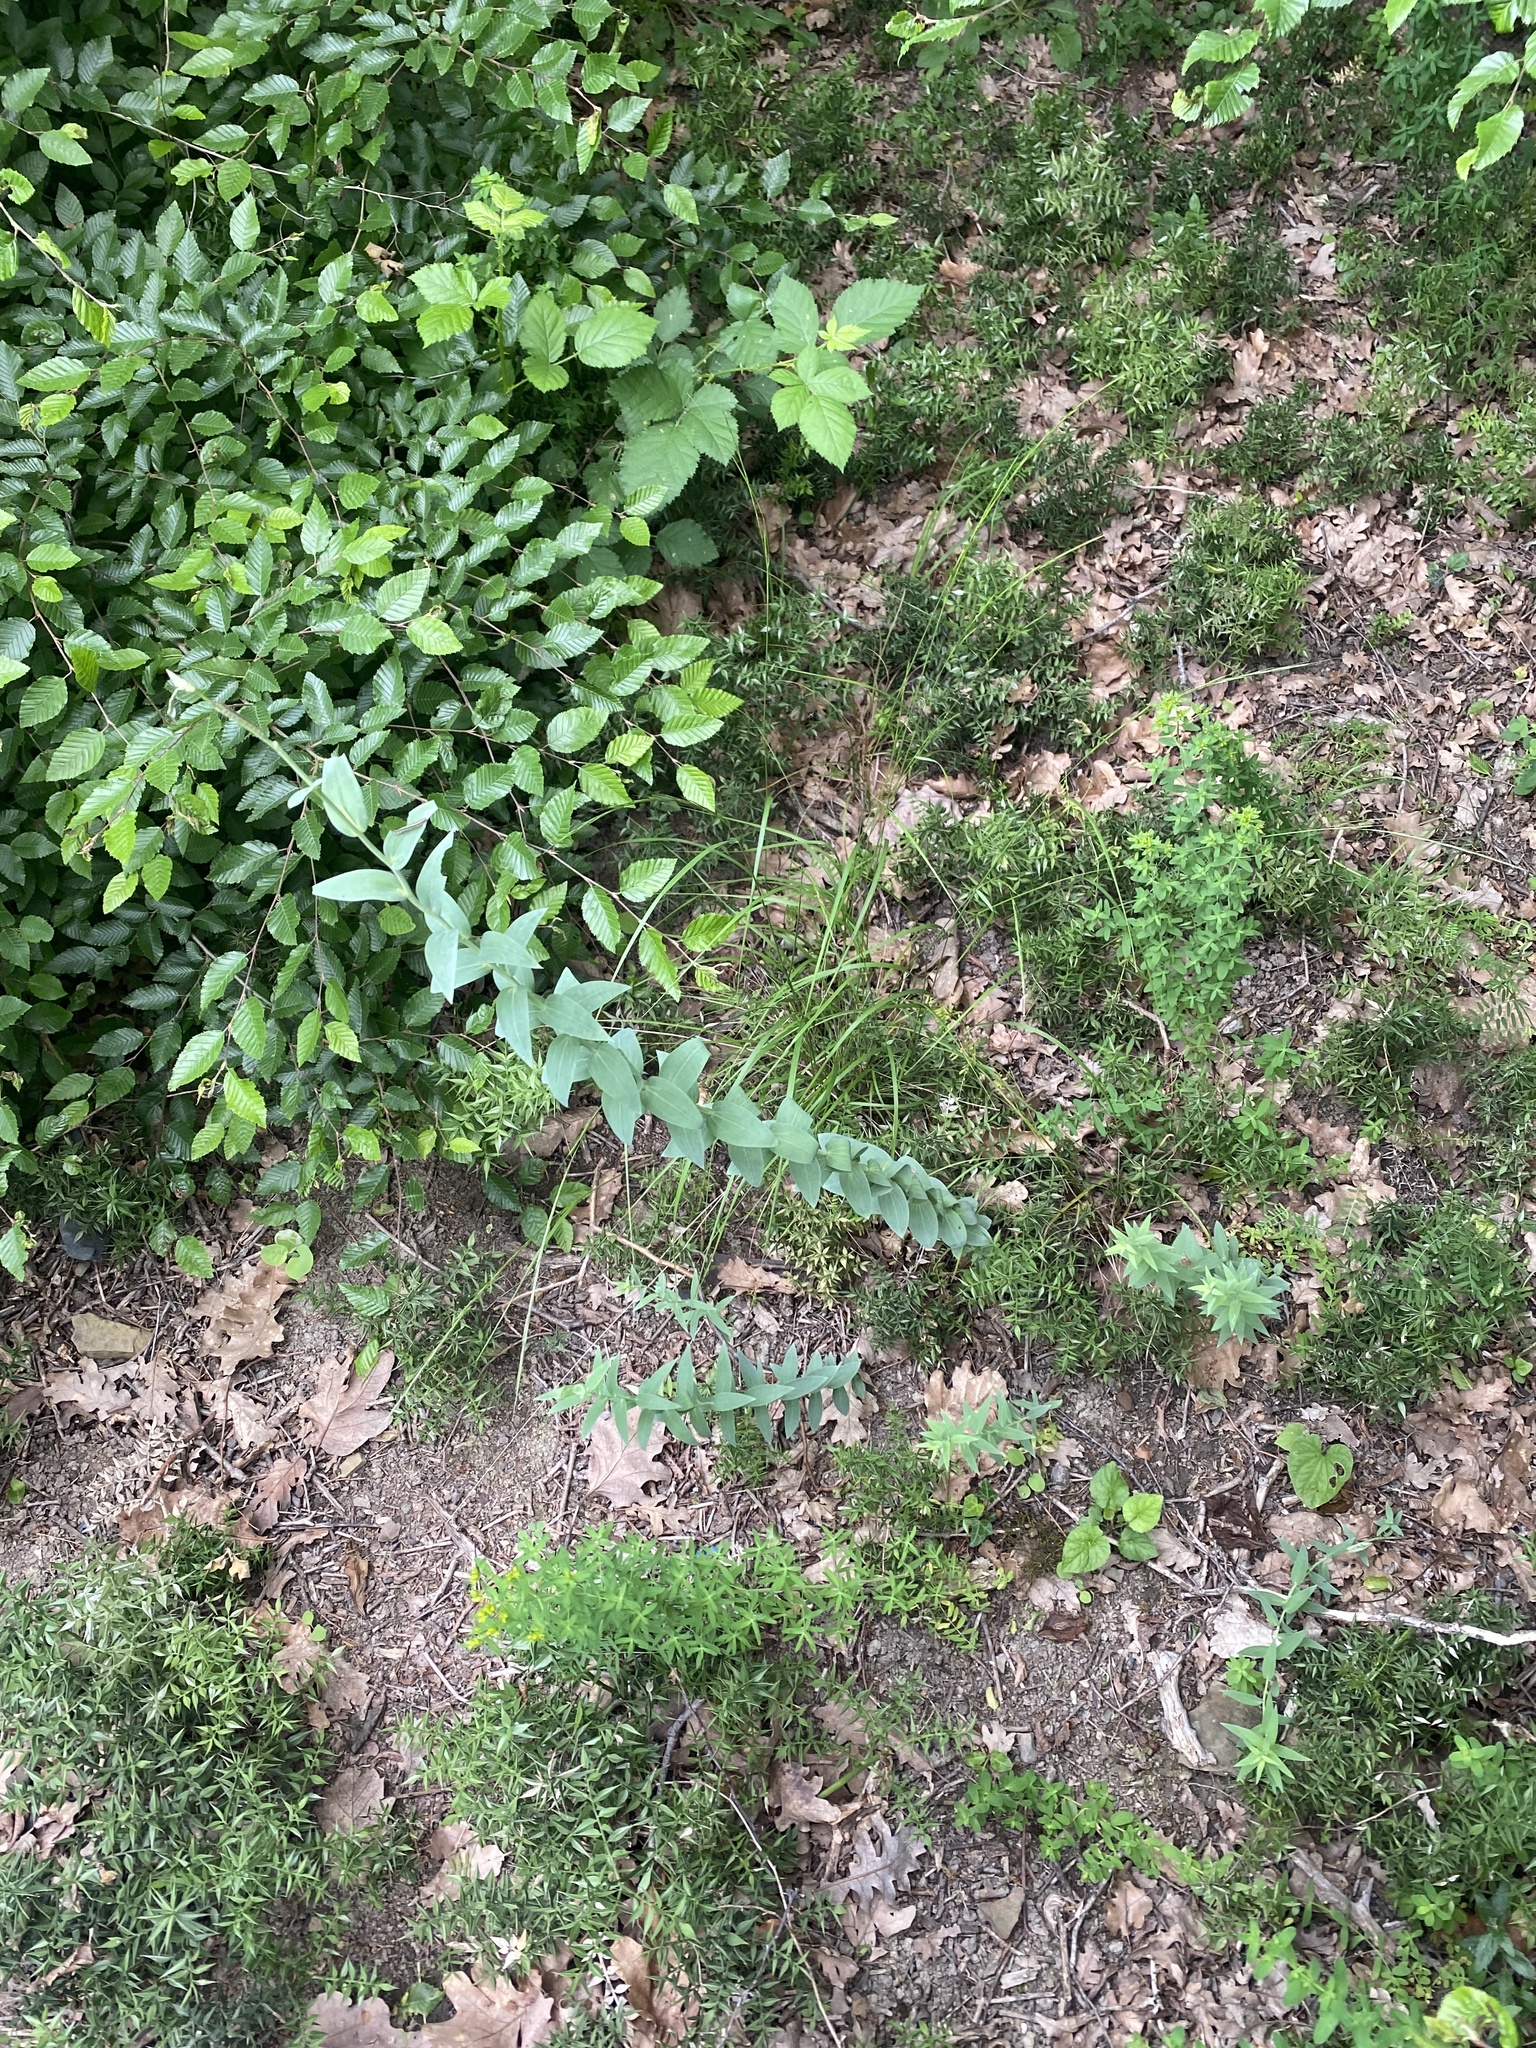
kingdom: Plantae
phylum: Tracheophyta
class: Magnoliopsida
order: Lamiales
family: Plantaginaceae
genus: Linaria
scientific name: Linaria genistifolia
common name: Broomleaf toadflax
